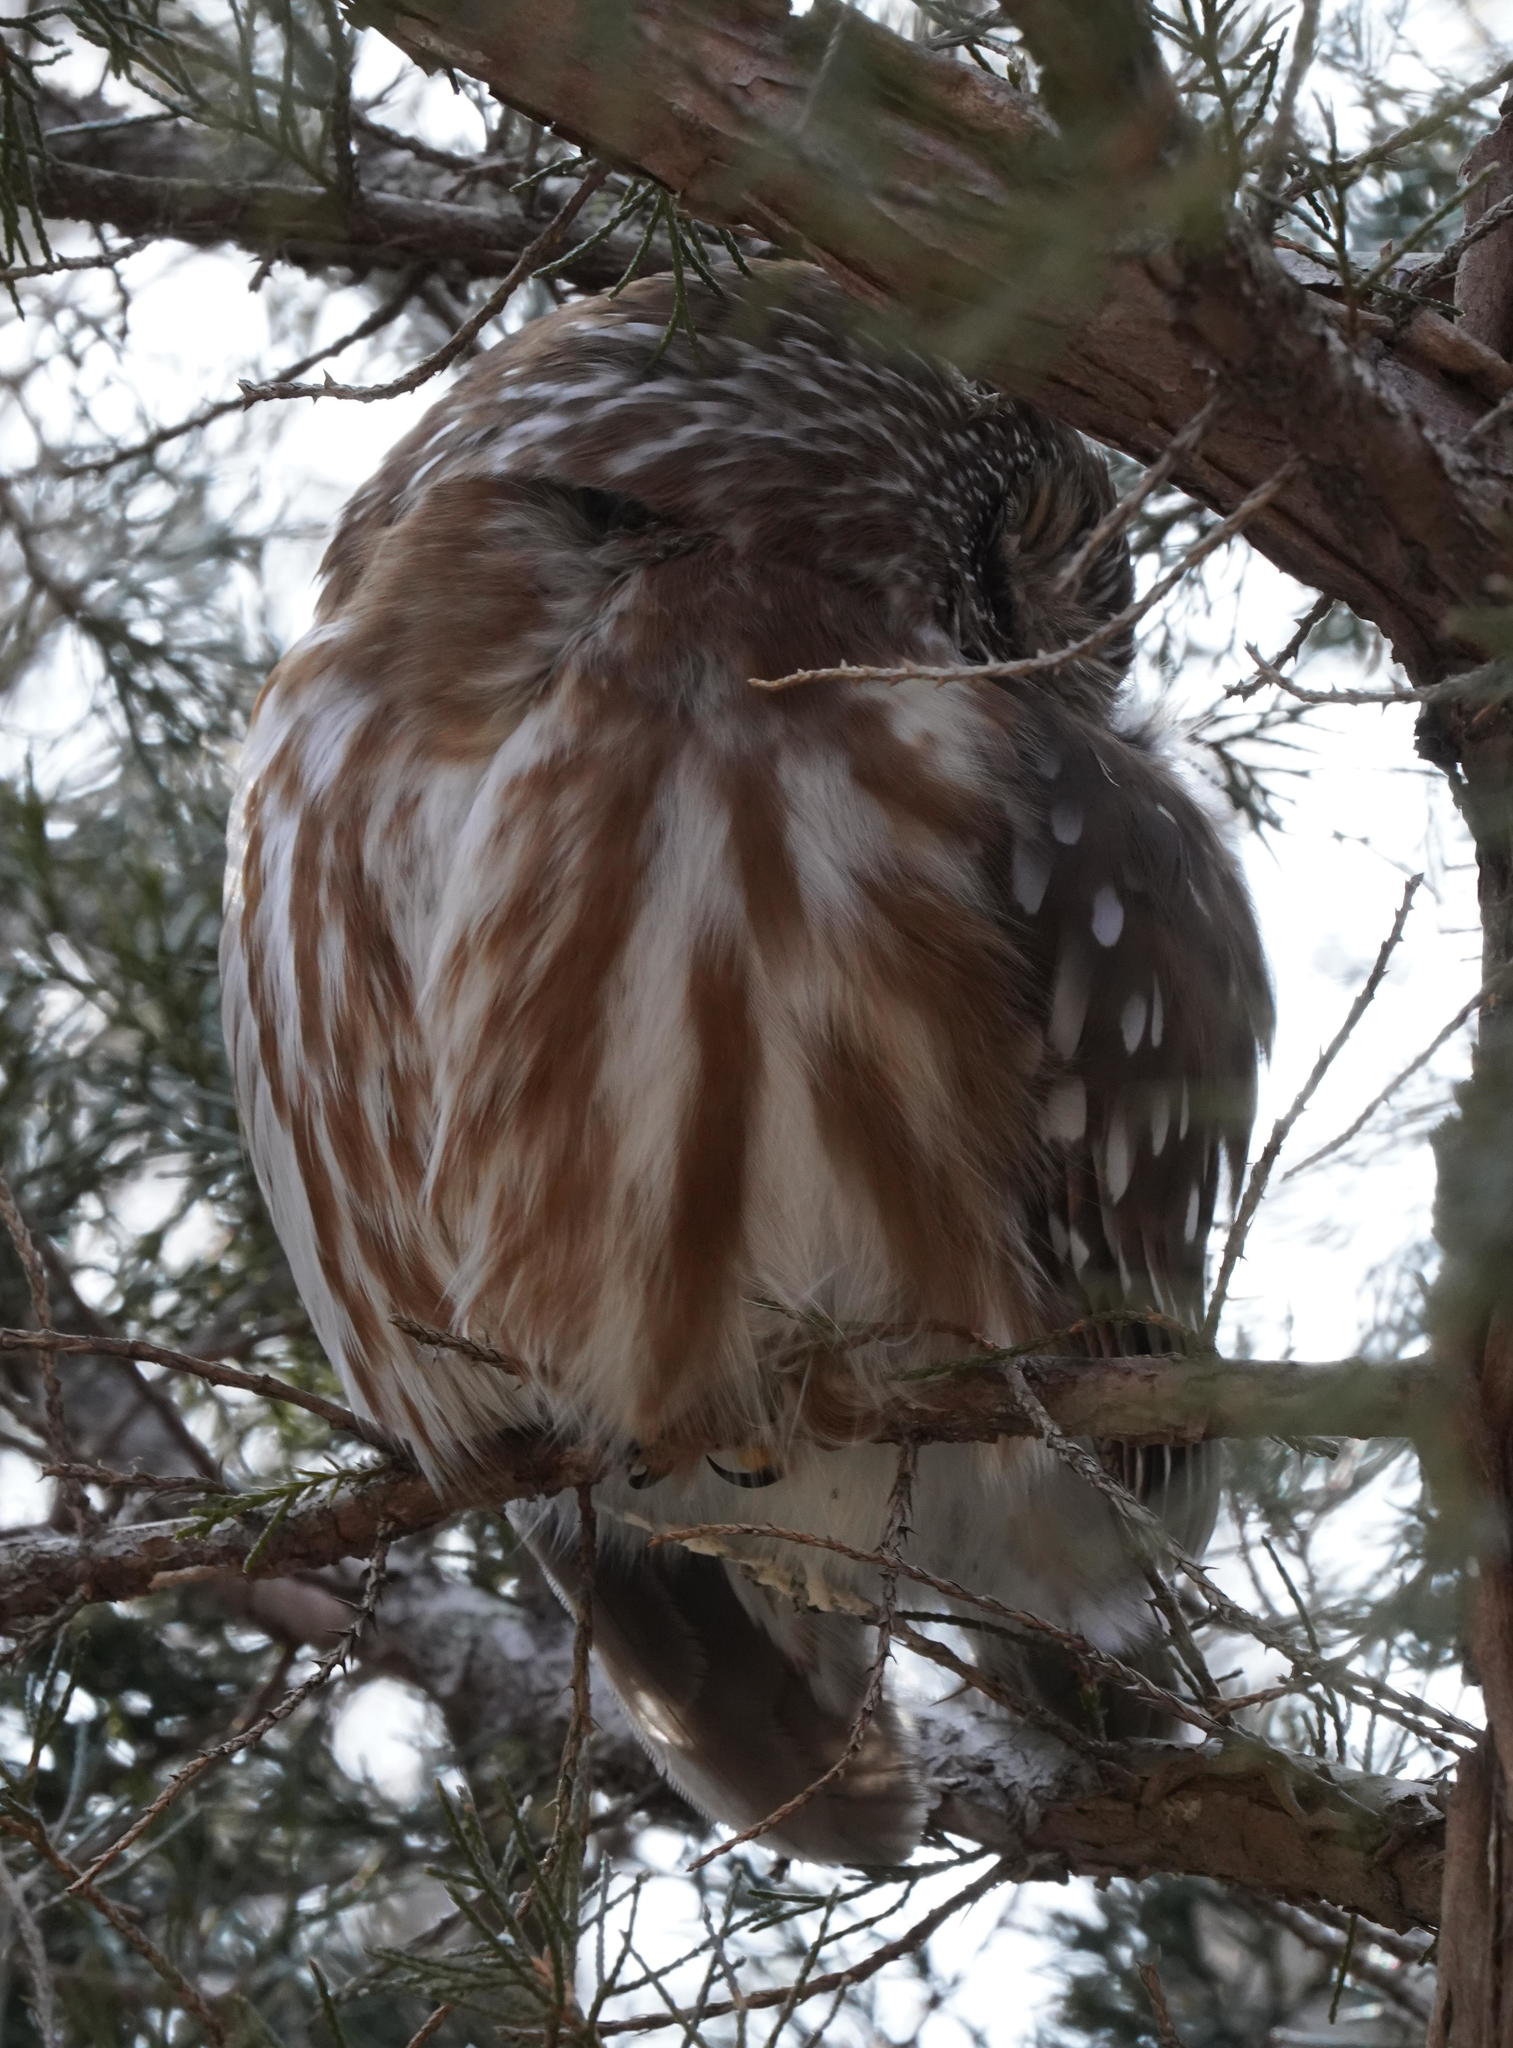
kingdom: Animalia
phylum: Chordata
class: Aves
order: Strigiformes
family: Strigidae
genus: Aegolius
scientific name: Aegolius acadicus
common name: Northern saw-whet owl
